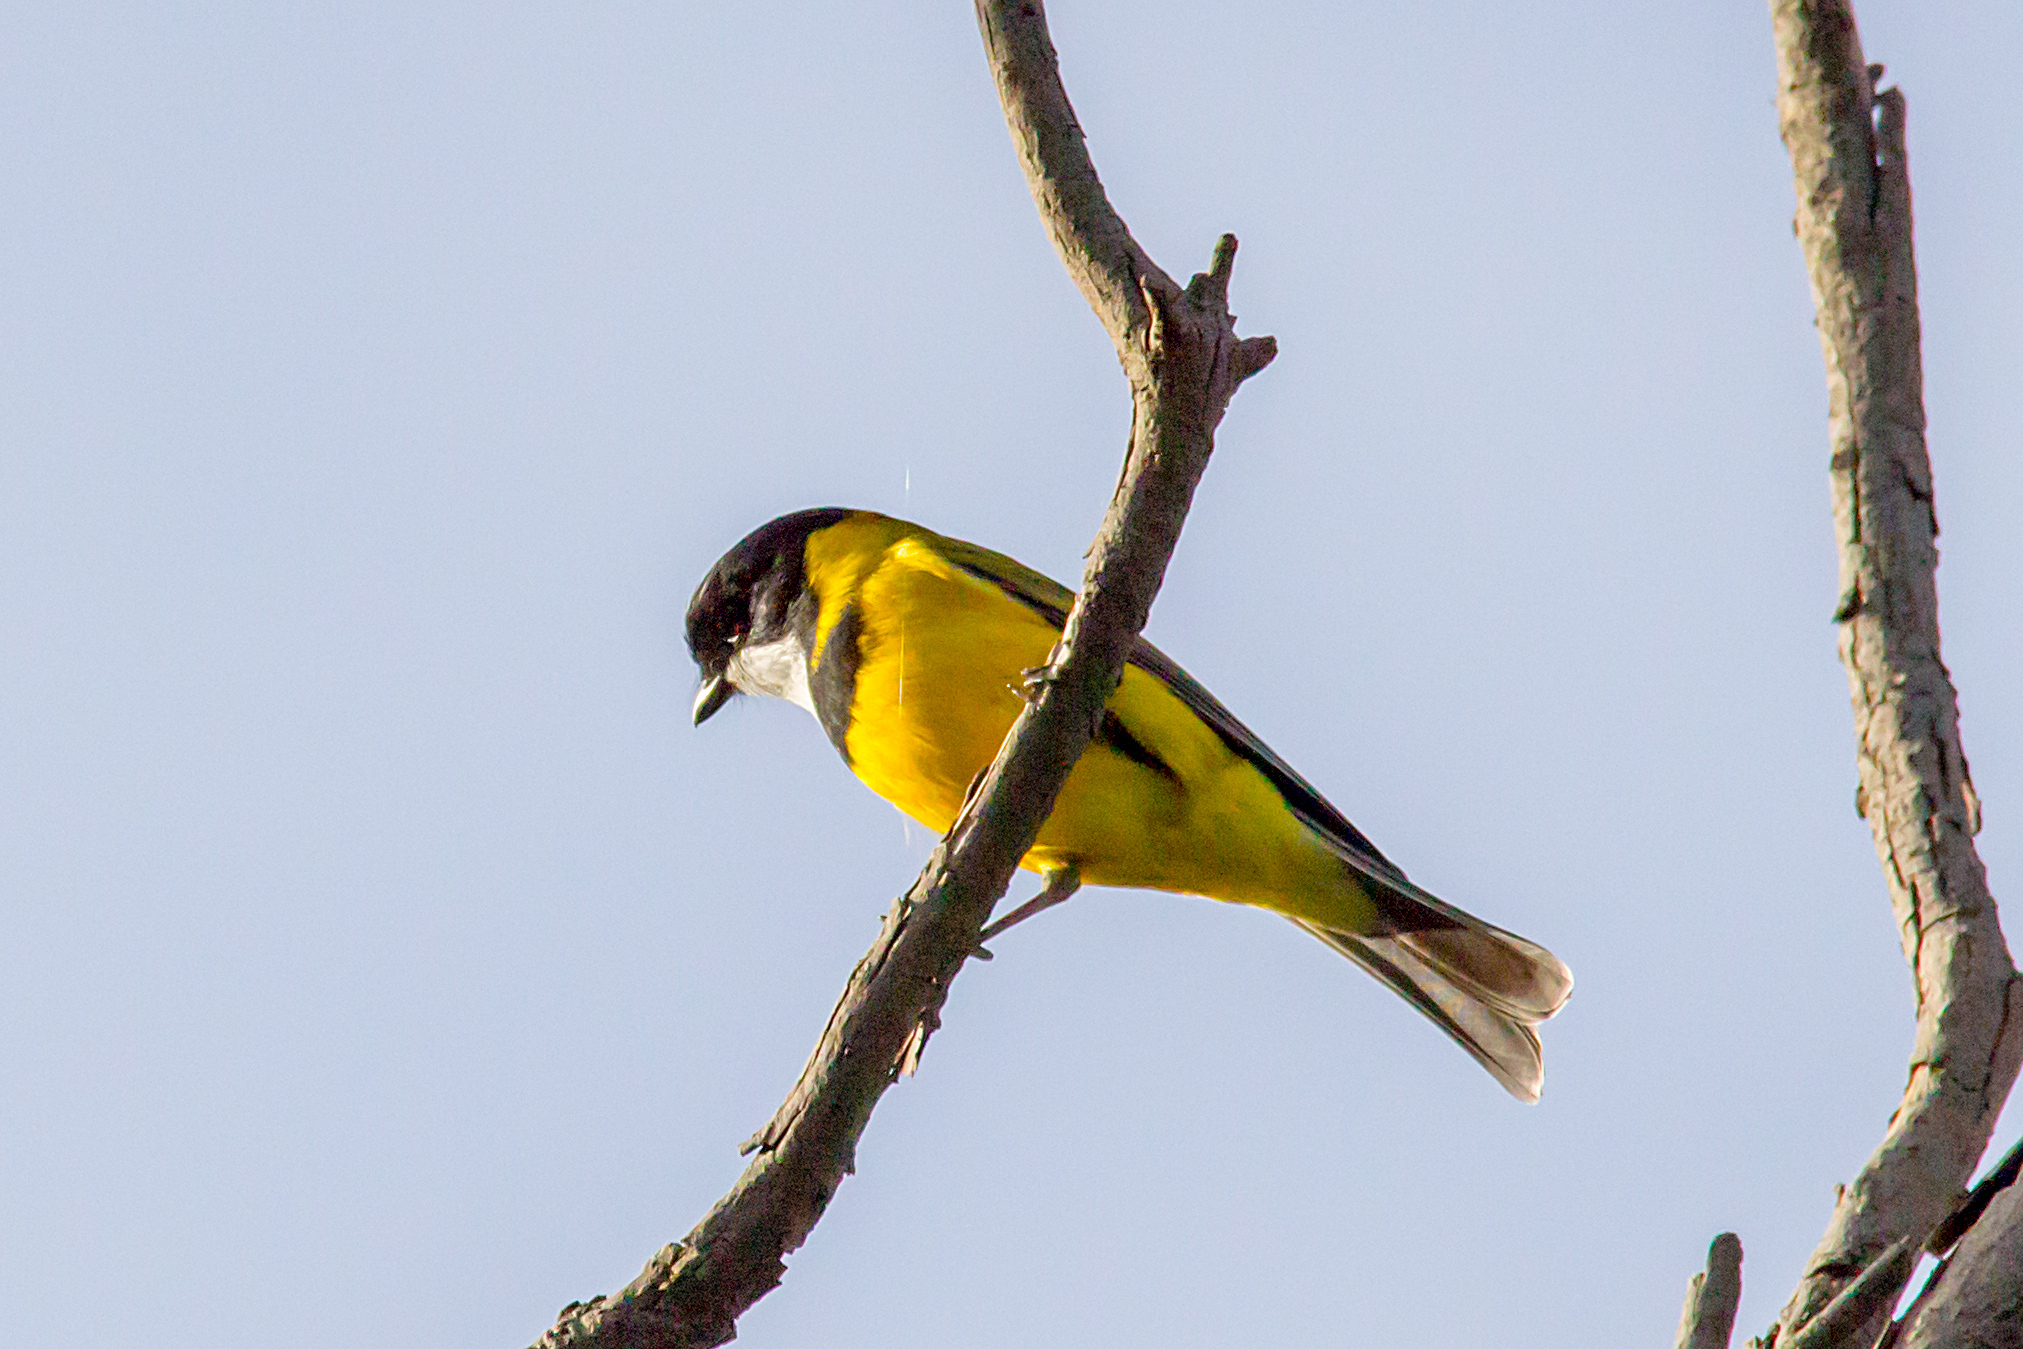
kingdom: Animalia
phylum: Chordata
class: Aves
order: Passeriformes
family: Pachycephalidae
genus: Pachycephala
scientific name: Pachycephala pectoralis
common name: Australian golden whistler
